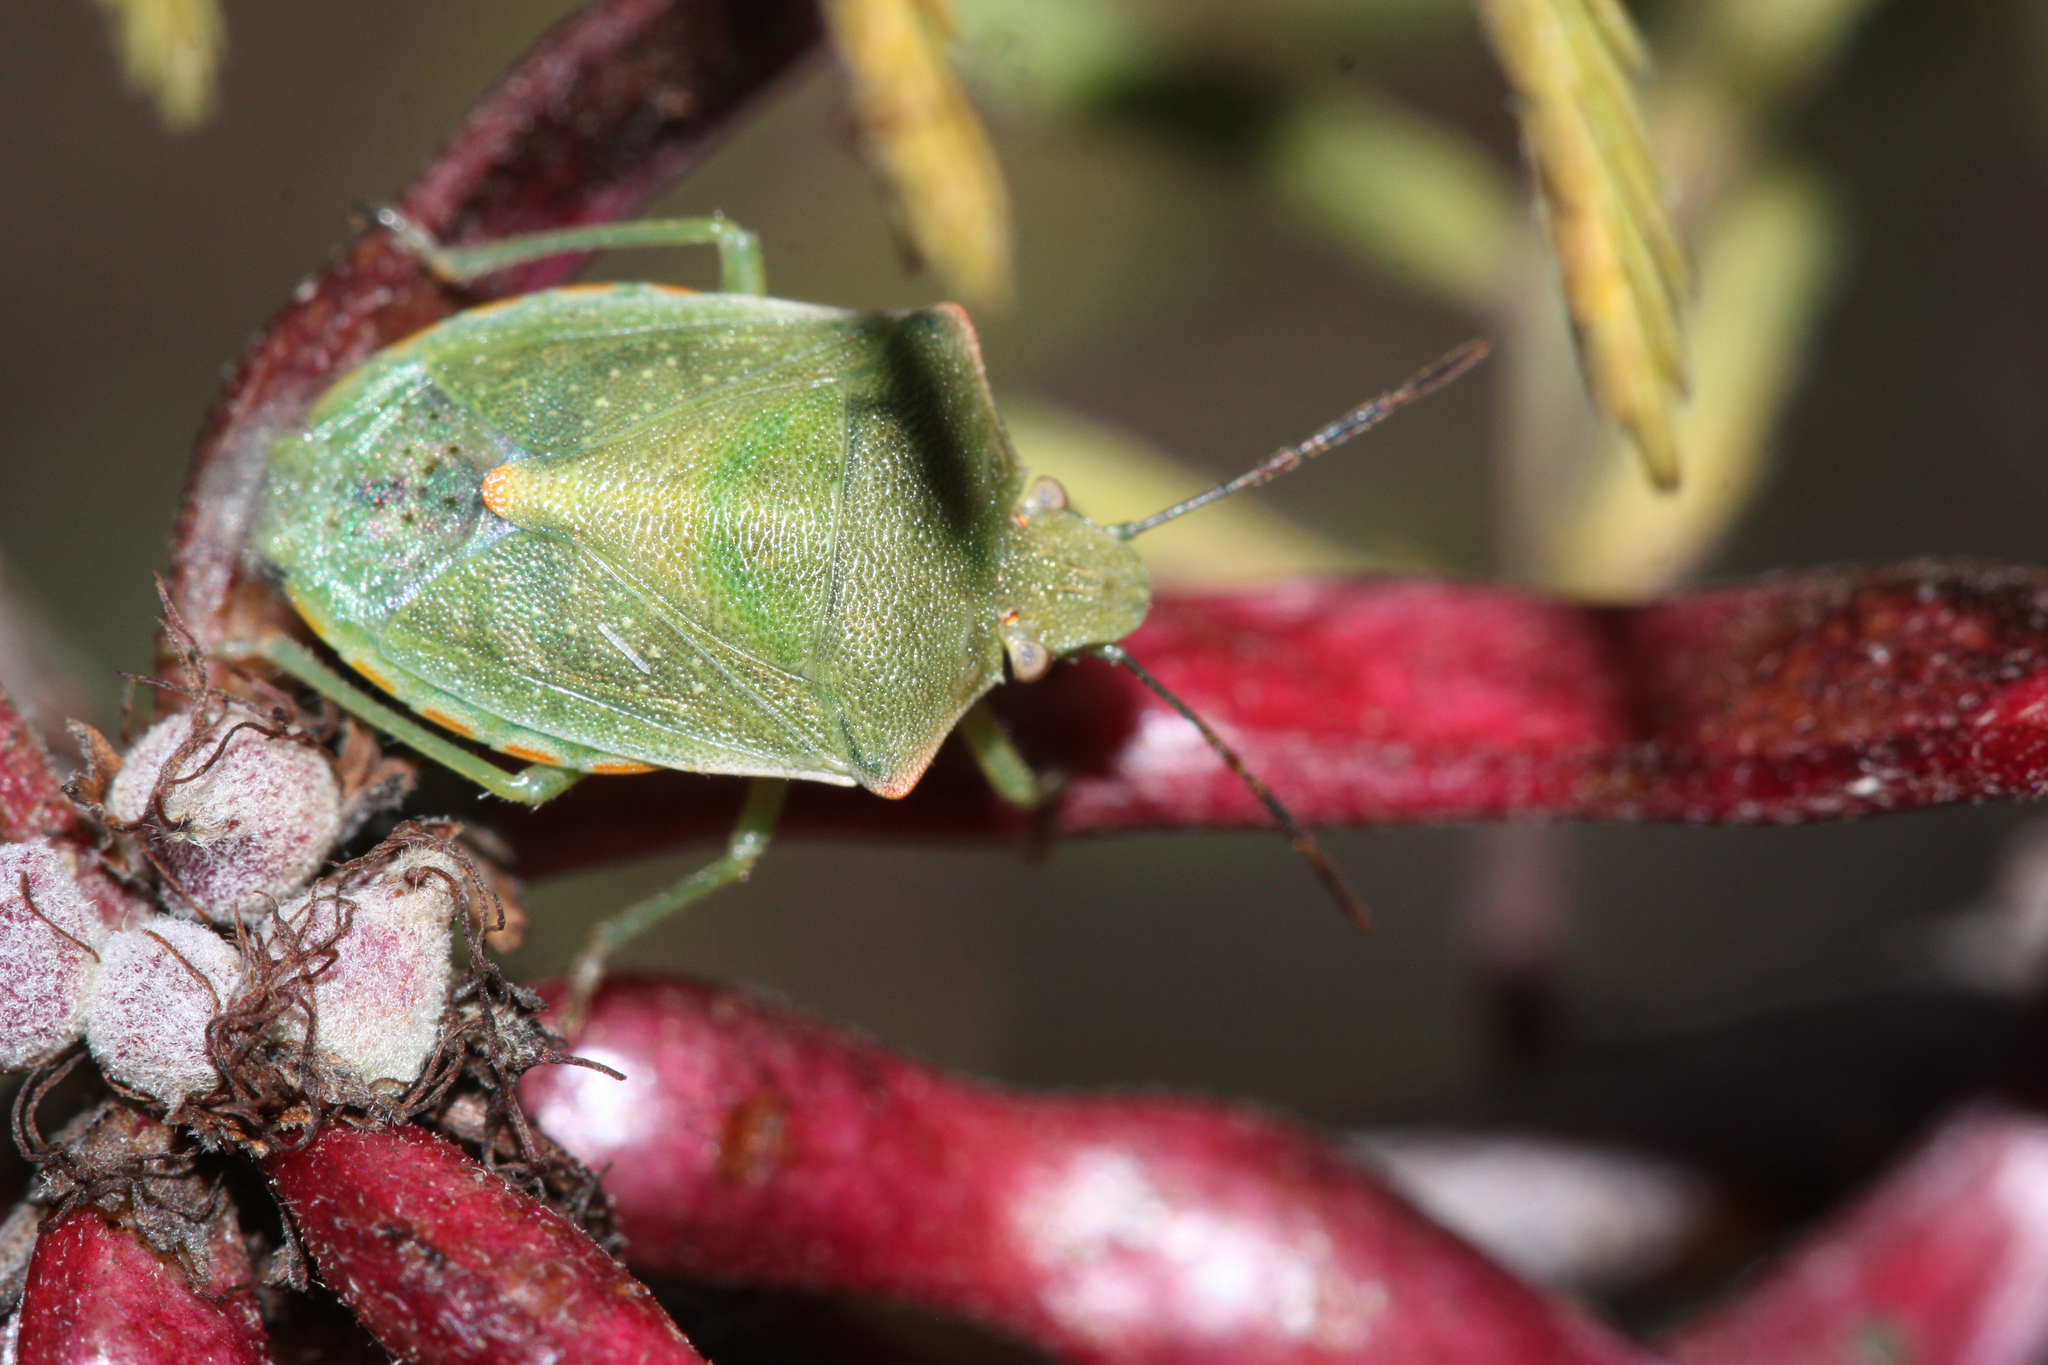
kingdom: Animalia
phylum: Arthropoda
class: Insecta
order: Hemiptera
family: Pentatomidae
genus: Thyanta
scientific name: Thyanta accerra
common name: Stink bug
